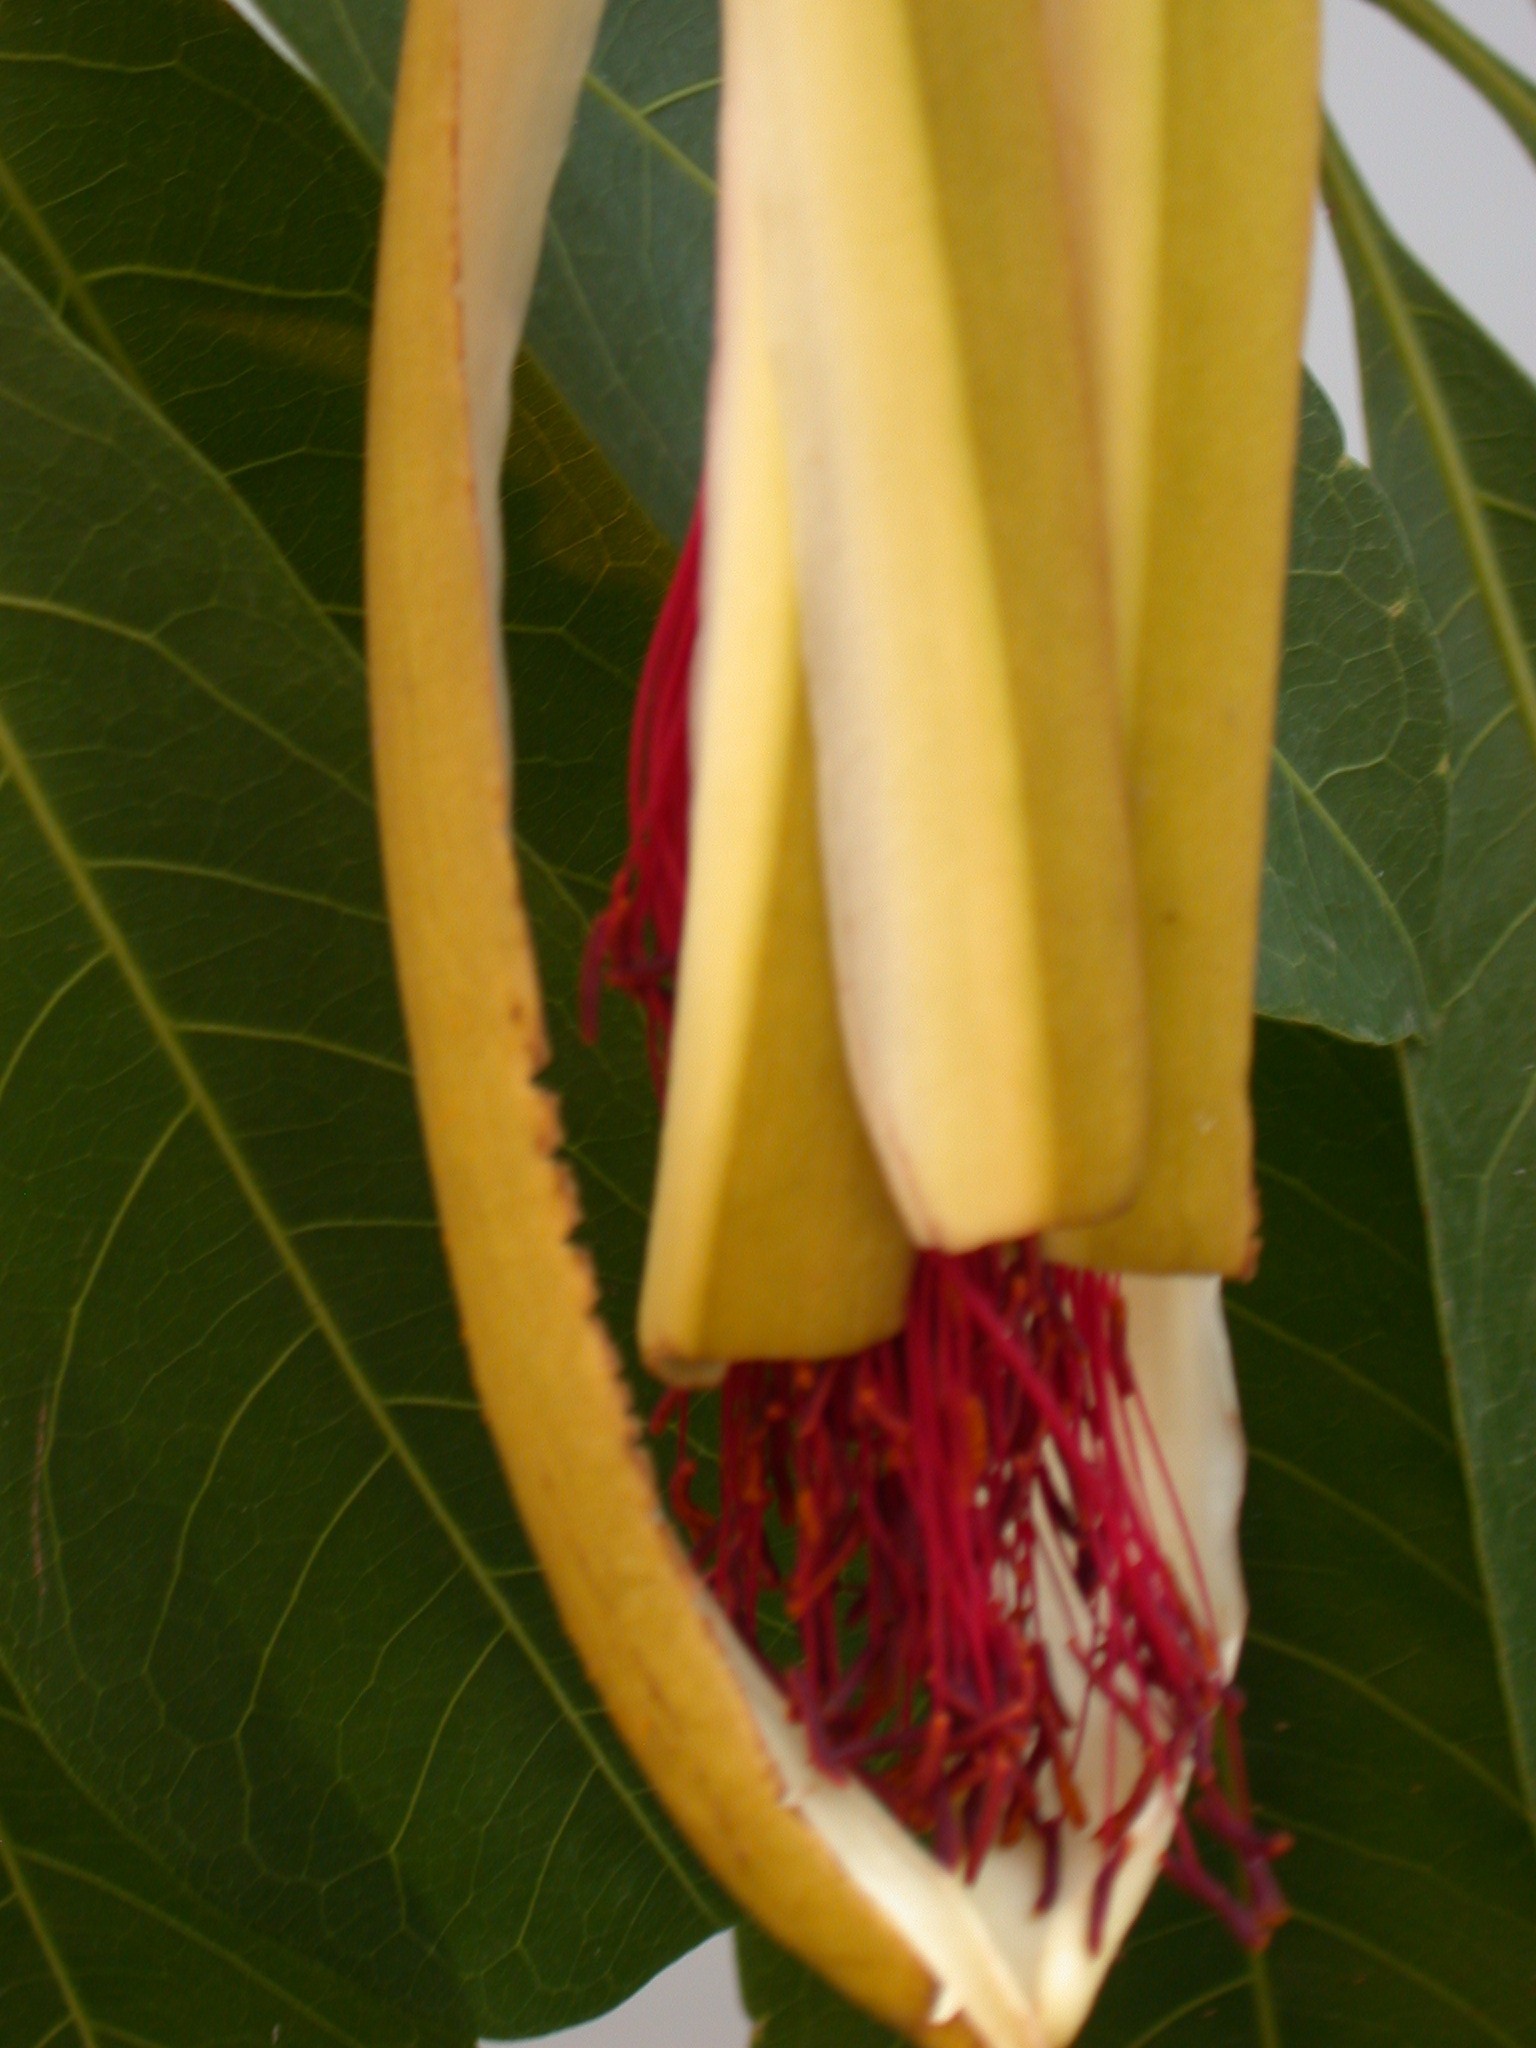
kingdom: Plantae
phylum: Tracheophyta
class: Magnoliopsida
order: Malvales
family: Malvaceae
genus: Pachira
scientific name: Pachira aquatica
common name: Provision-tree
